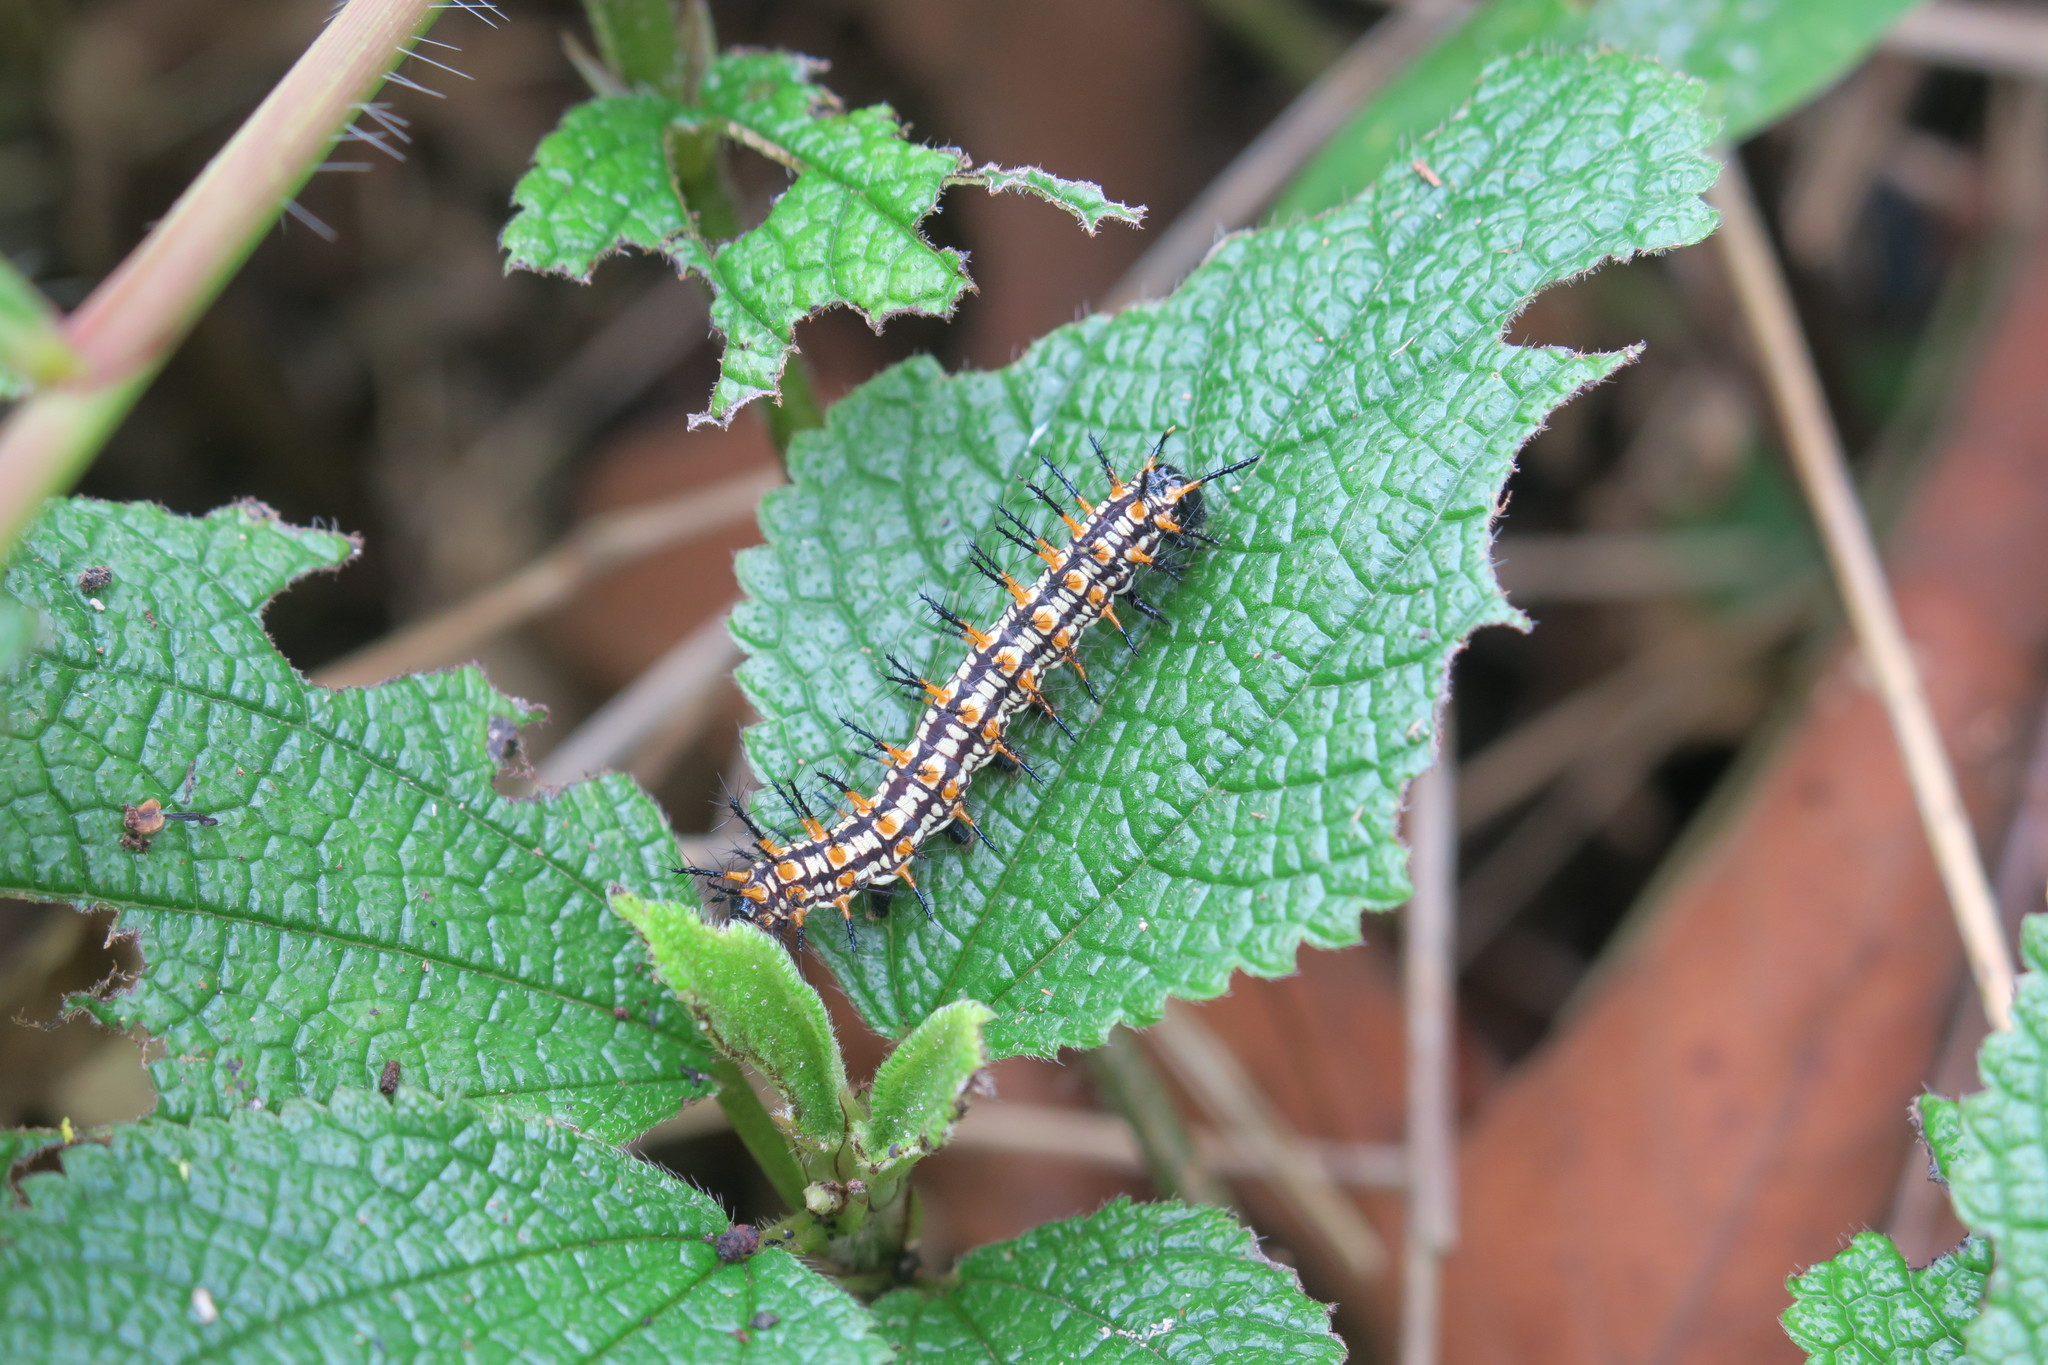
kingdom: Animalia
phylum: Arthropoda
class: Insecta
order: Lepidoptera
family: Nymphalidae
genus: Acraea
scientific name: Acraea Telchinia issoria
